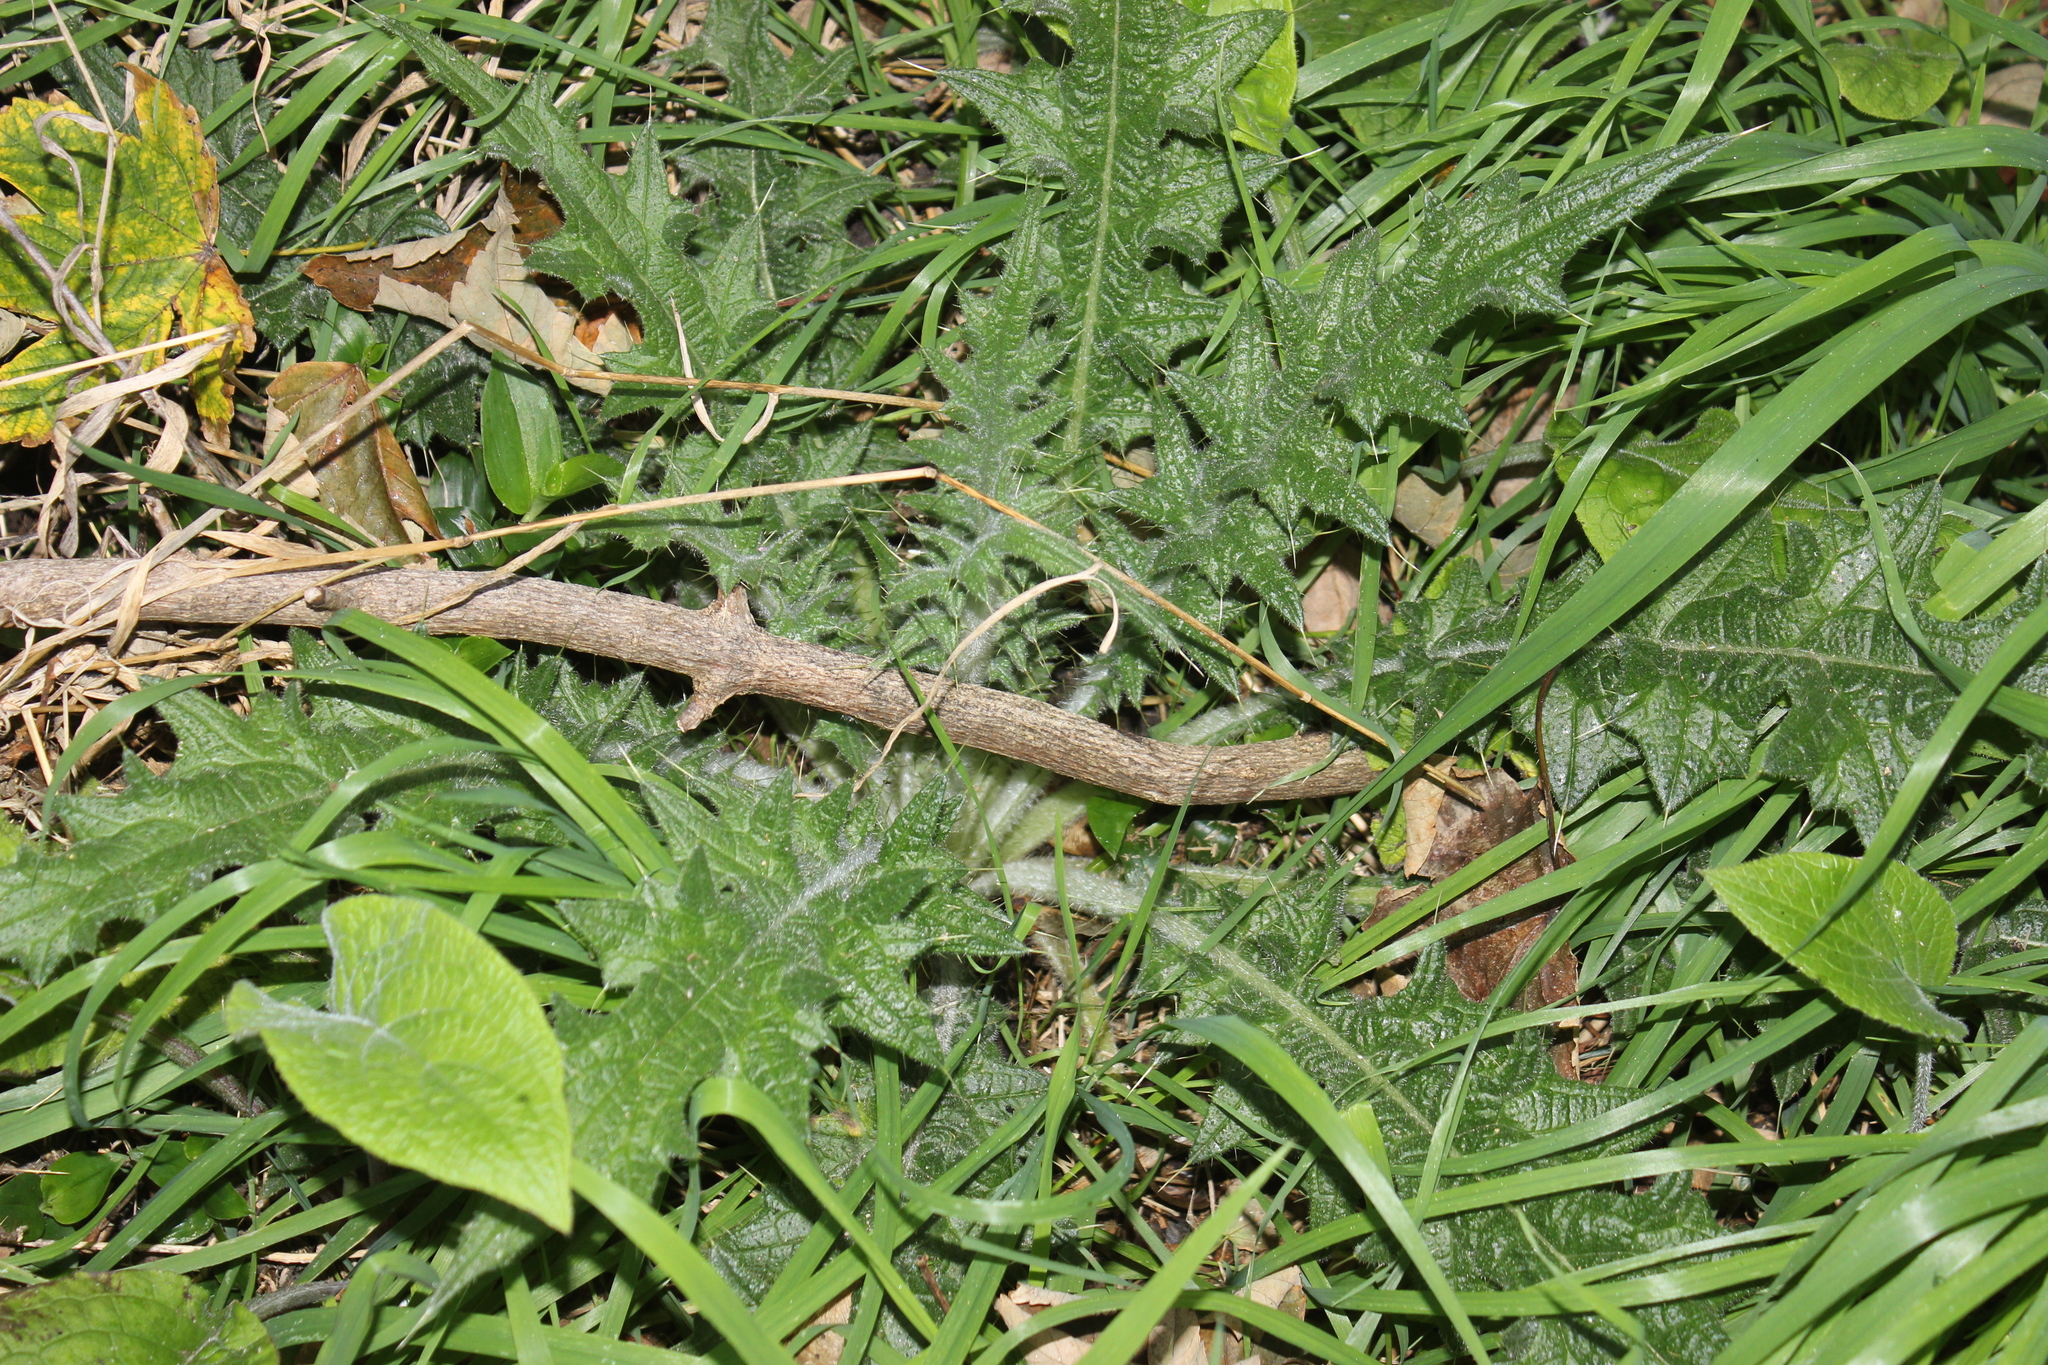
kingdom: Plantae
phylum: Tracheophyta
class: Magnoliopsida
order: Asterales
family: Asteraceae
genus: Cirsium
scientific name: Cirsium vulgare
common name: Bull thistle
